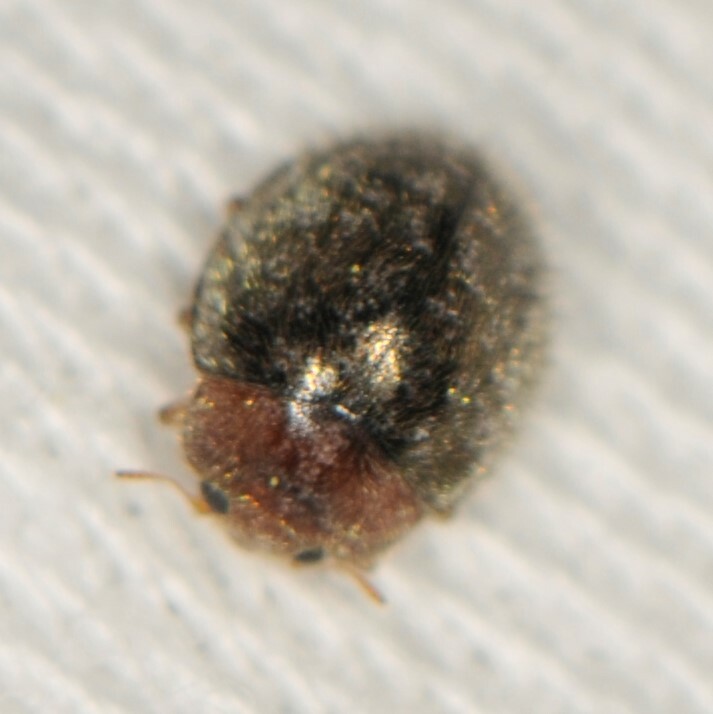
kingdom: Animalia
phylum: Arthropoda
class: Insecta
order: Coleoptera
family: Coccinellidae
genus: Rhyzobius
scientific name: Rhyzobius lophanthae
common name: Scale-eating ladybird beetle
